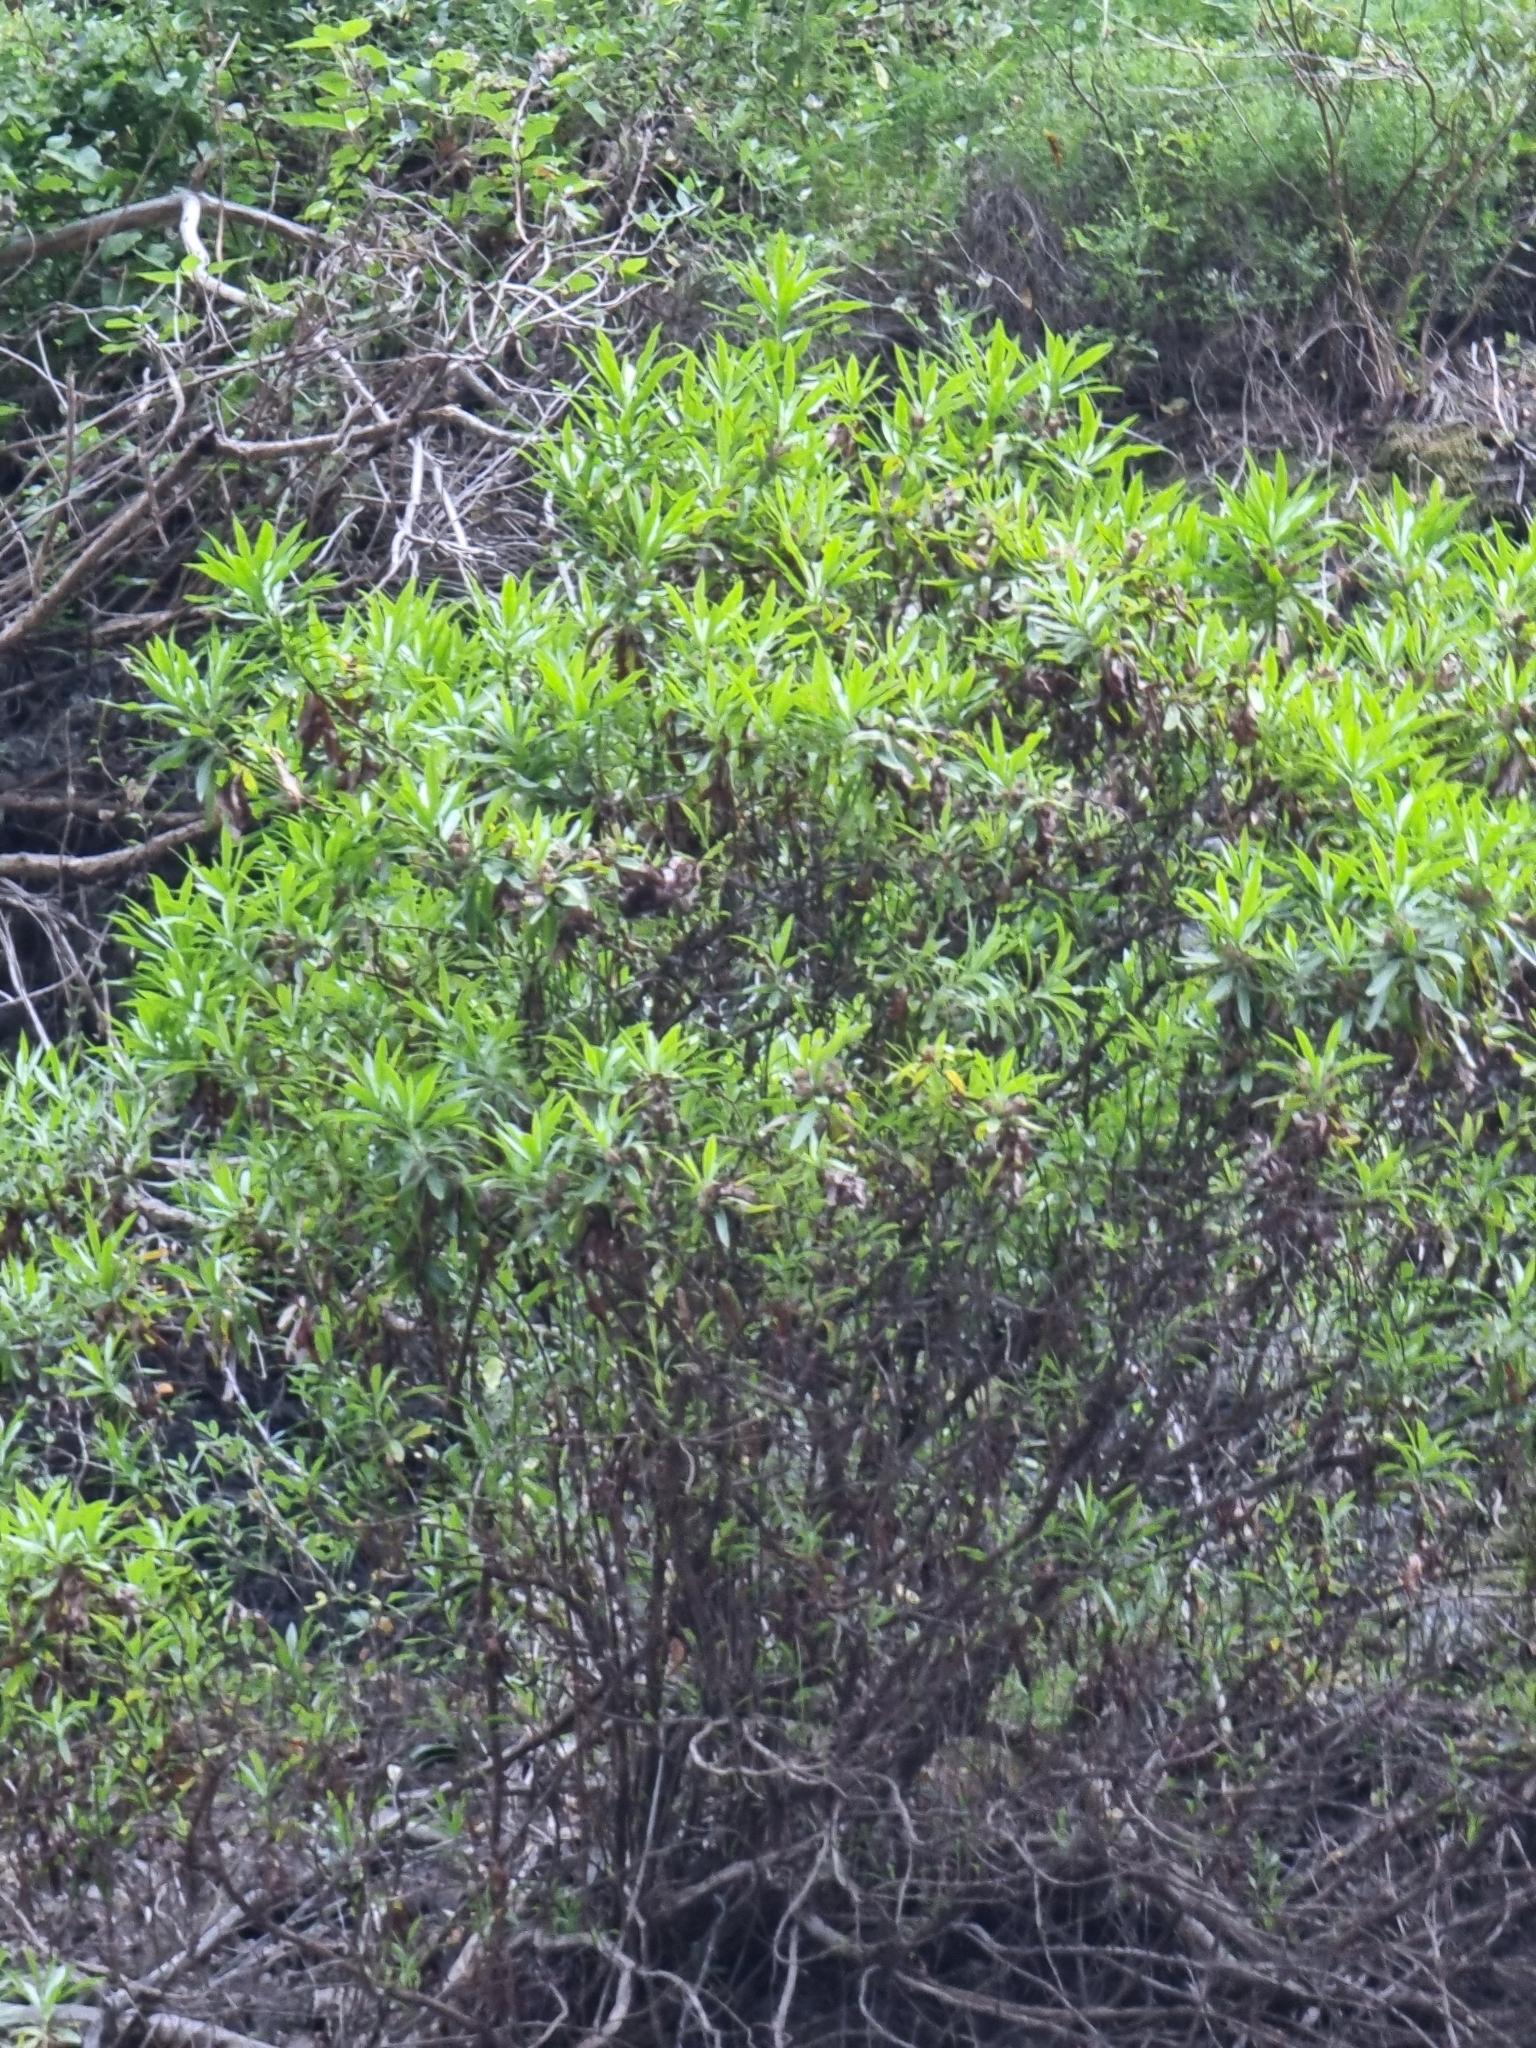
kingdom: Plantae
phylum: Tracheophyta
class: Magnoliopsida
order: Lamiales
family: Plantaginaceae
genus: Globularia
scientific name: Globularia salicina
